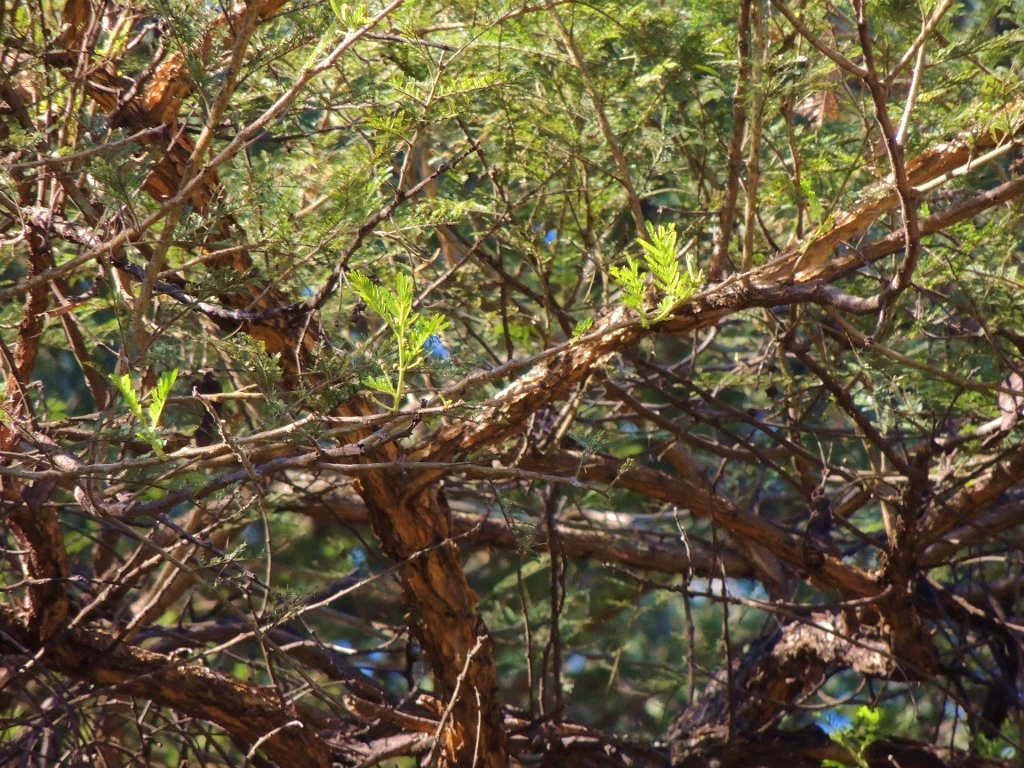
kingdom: Plantae
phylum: Tracheophyta
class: Magnoliopsida
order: Fabales
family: Fabaceae
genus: Vachellia
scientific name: Vachellia sieberiana
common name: Flat-topped thorn
